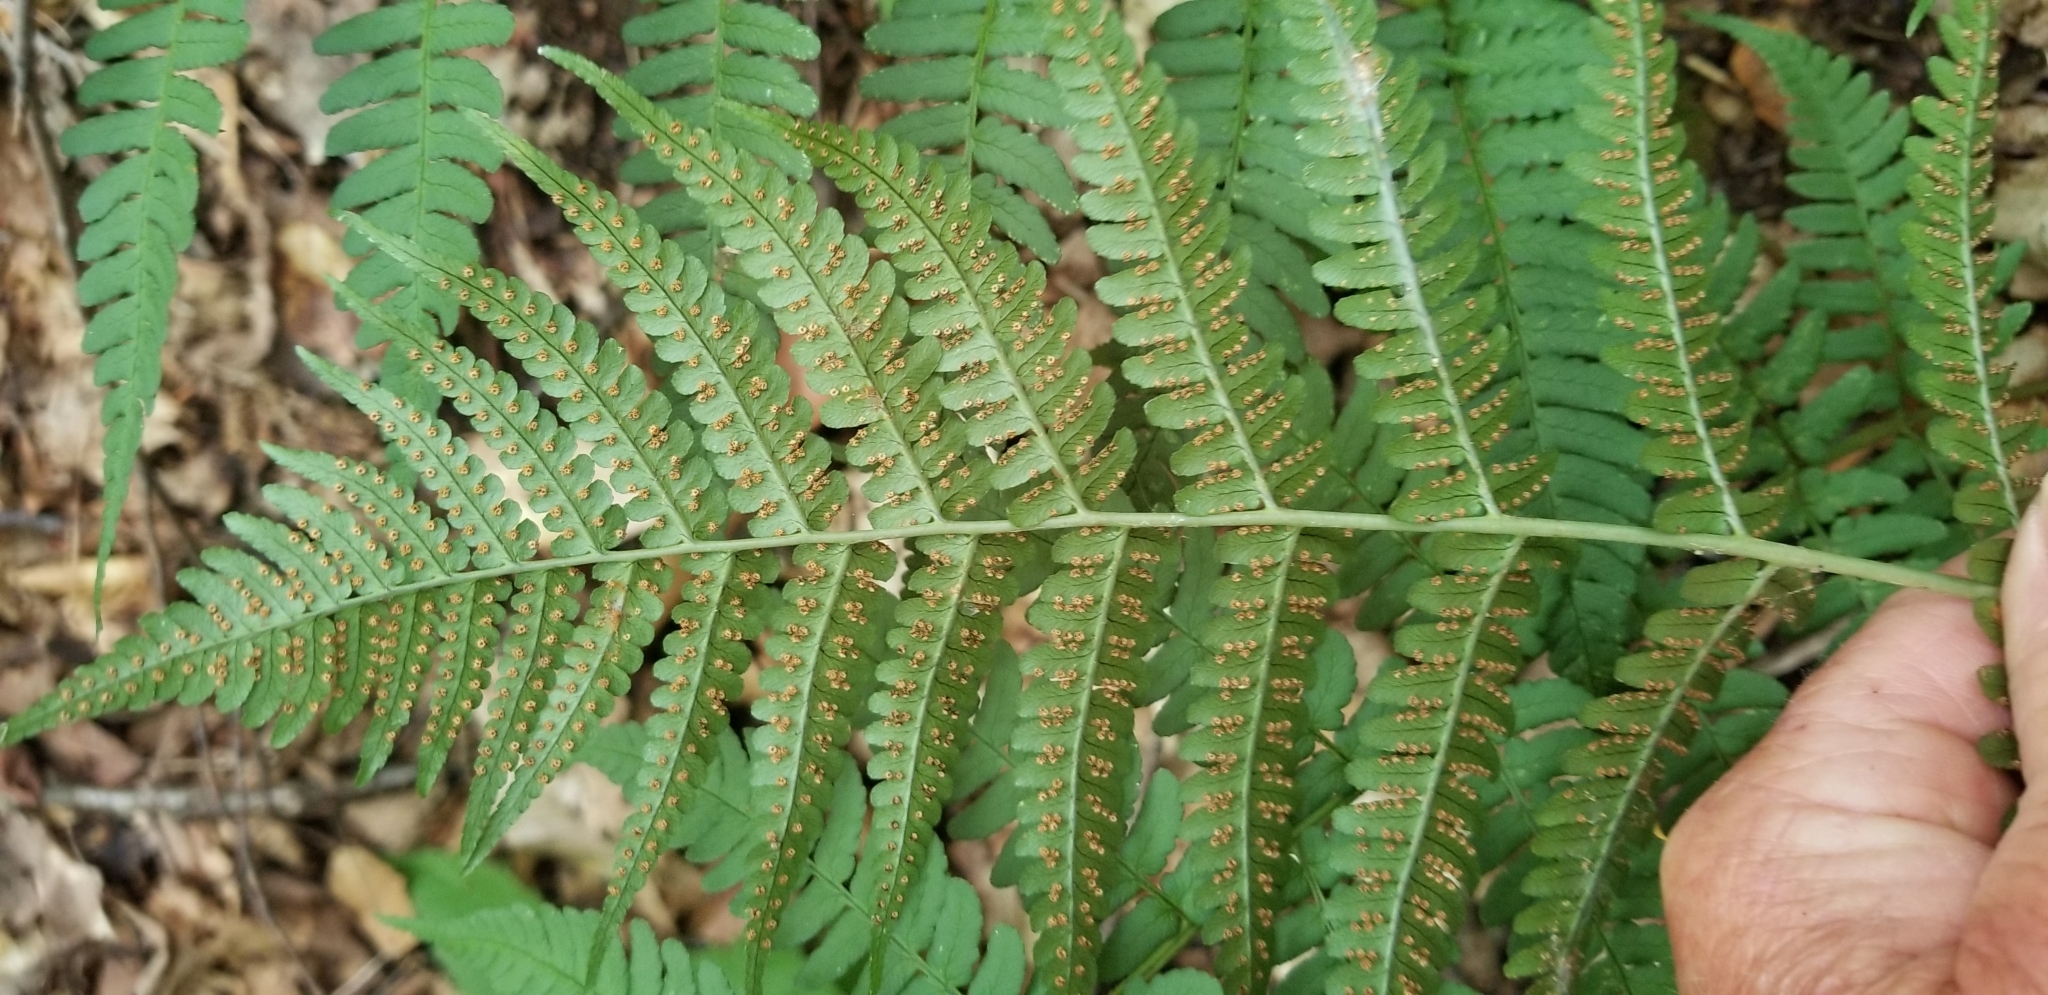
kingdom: Plantae
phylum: Tracheophyta
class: Polypodiopsida
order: Polypodiales
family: Dryopteridaceae
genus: Dryopteris
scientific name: Dryopteris marginalis
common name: Marginal wood fern
